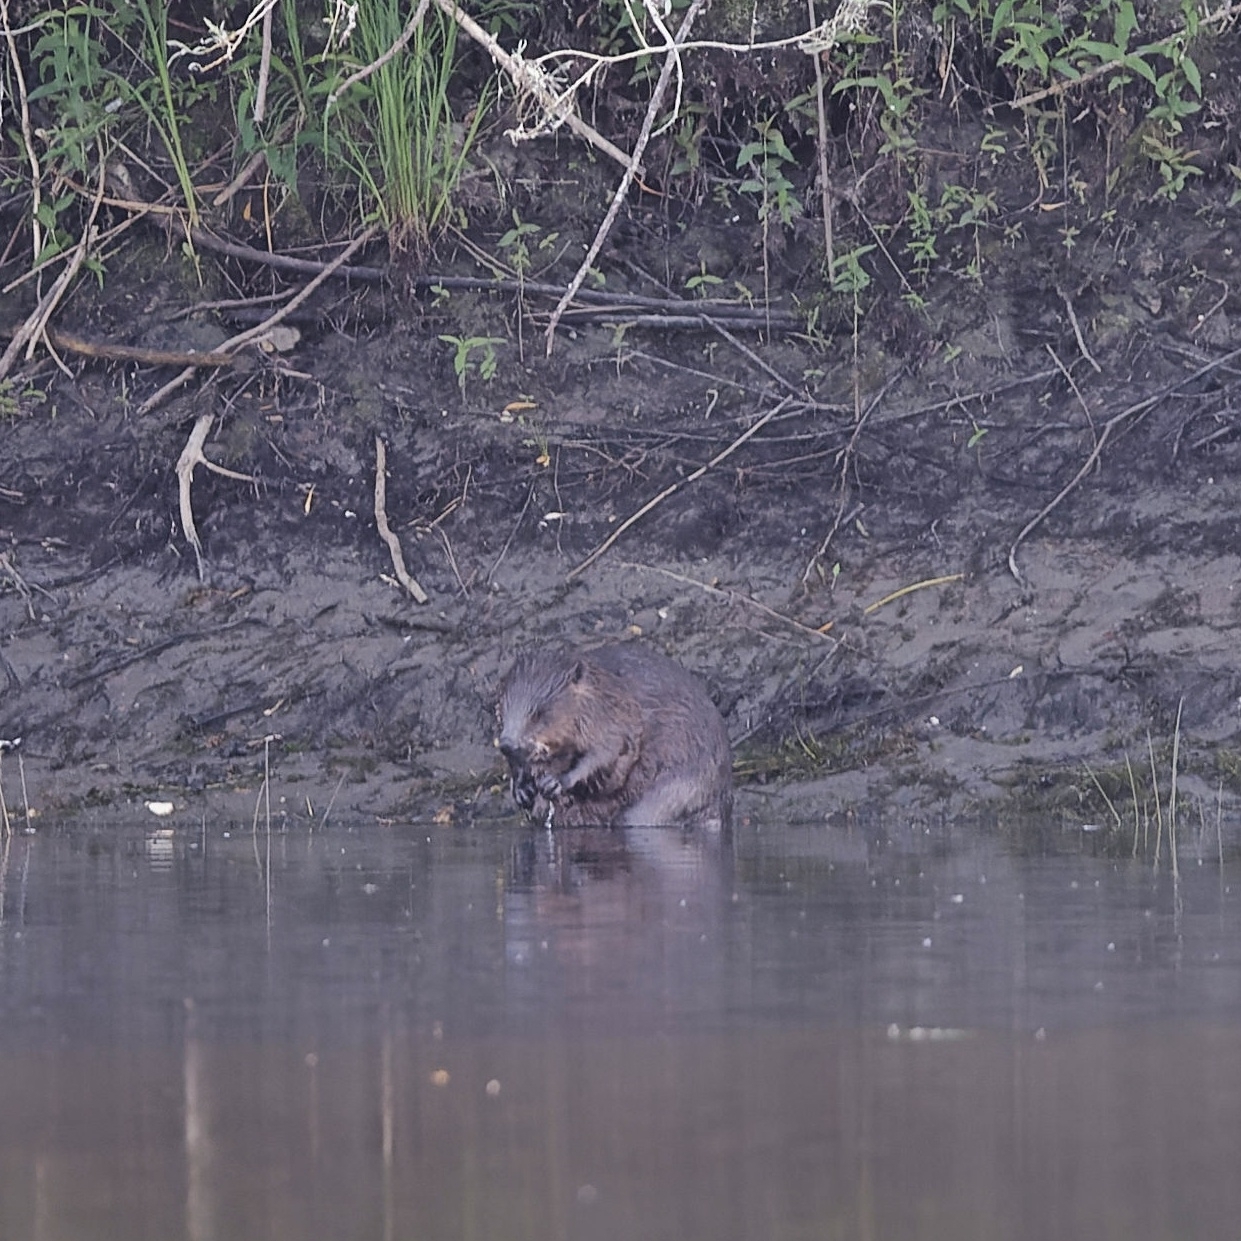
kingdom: Animalia
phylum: Chordata
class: Mammalia
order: Rodentia
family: Castoridae
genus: Castor
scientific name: Castor fiber
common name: Eurasian beaver
